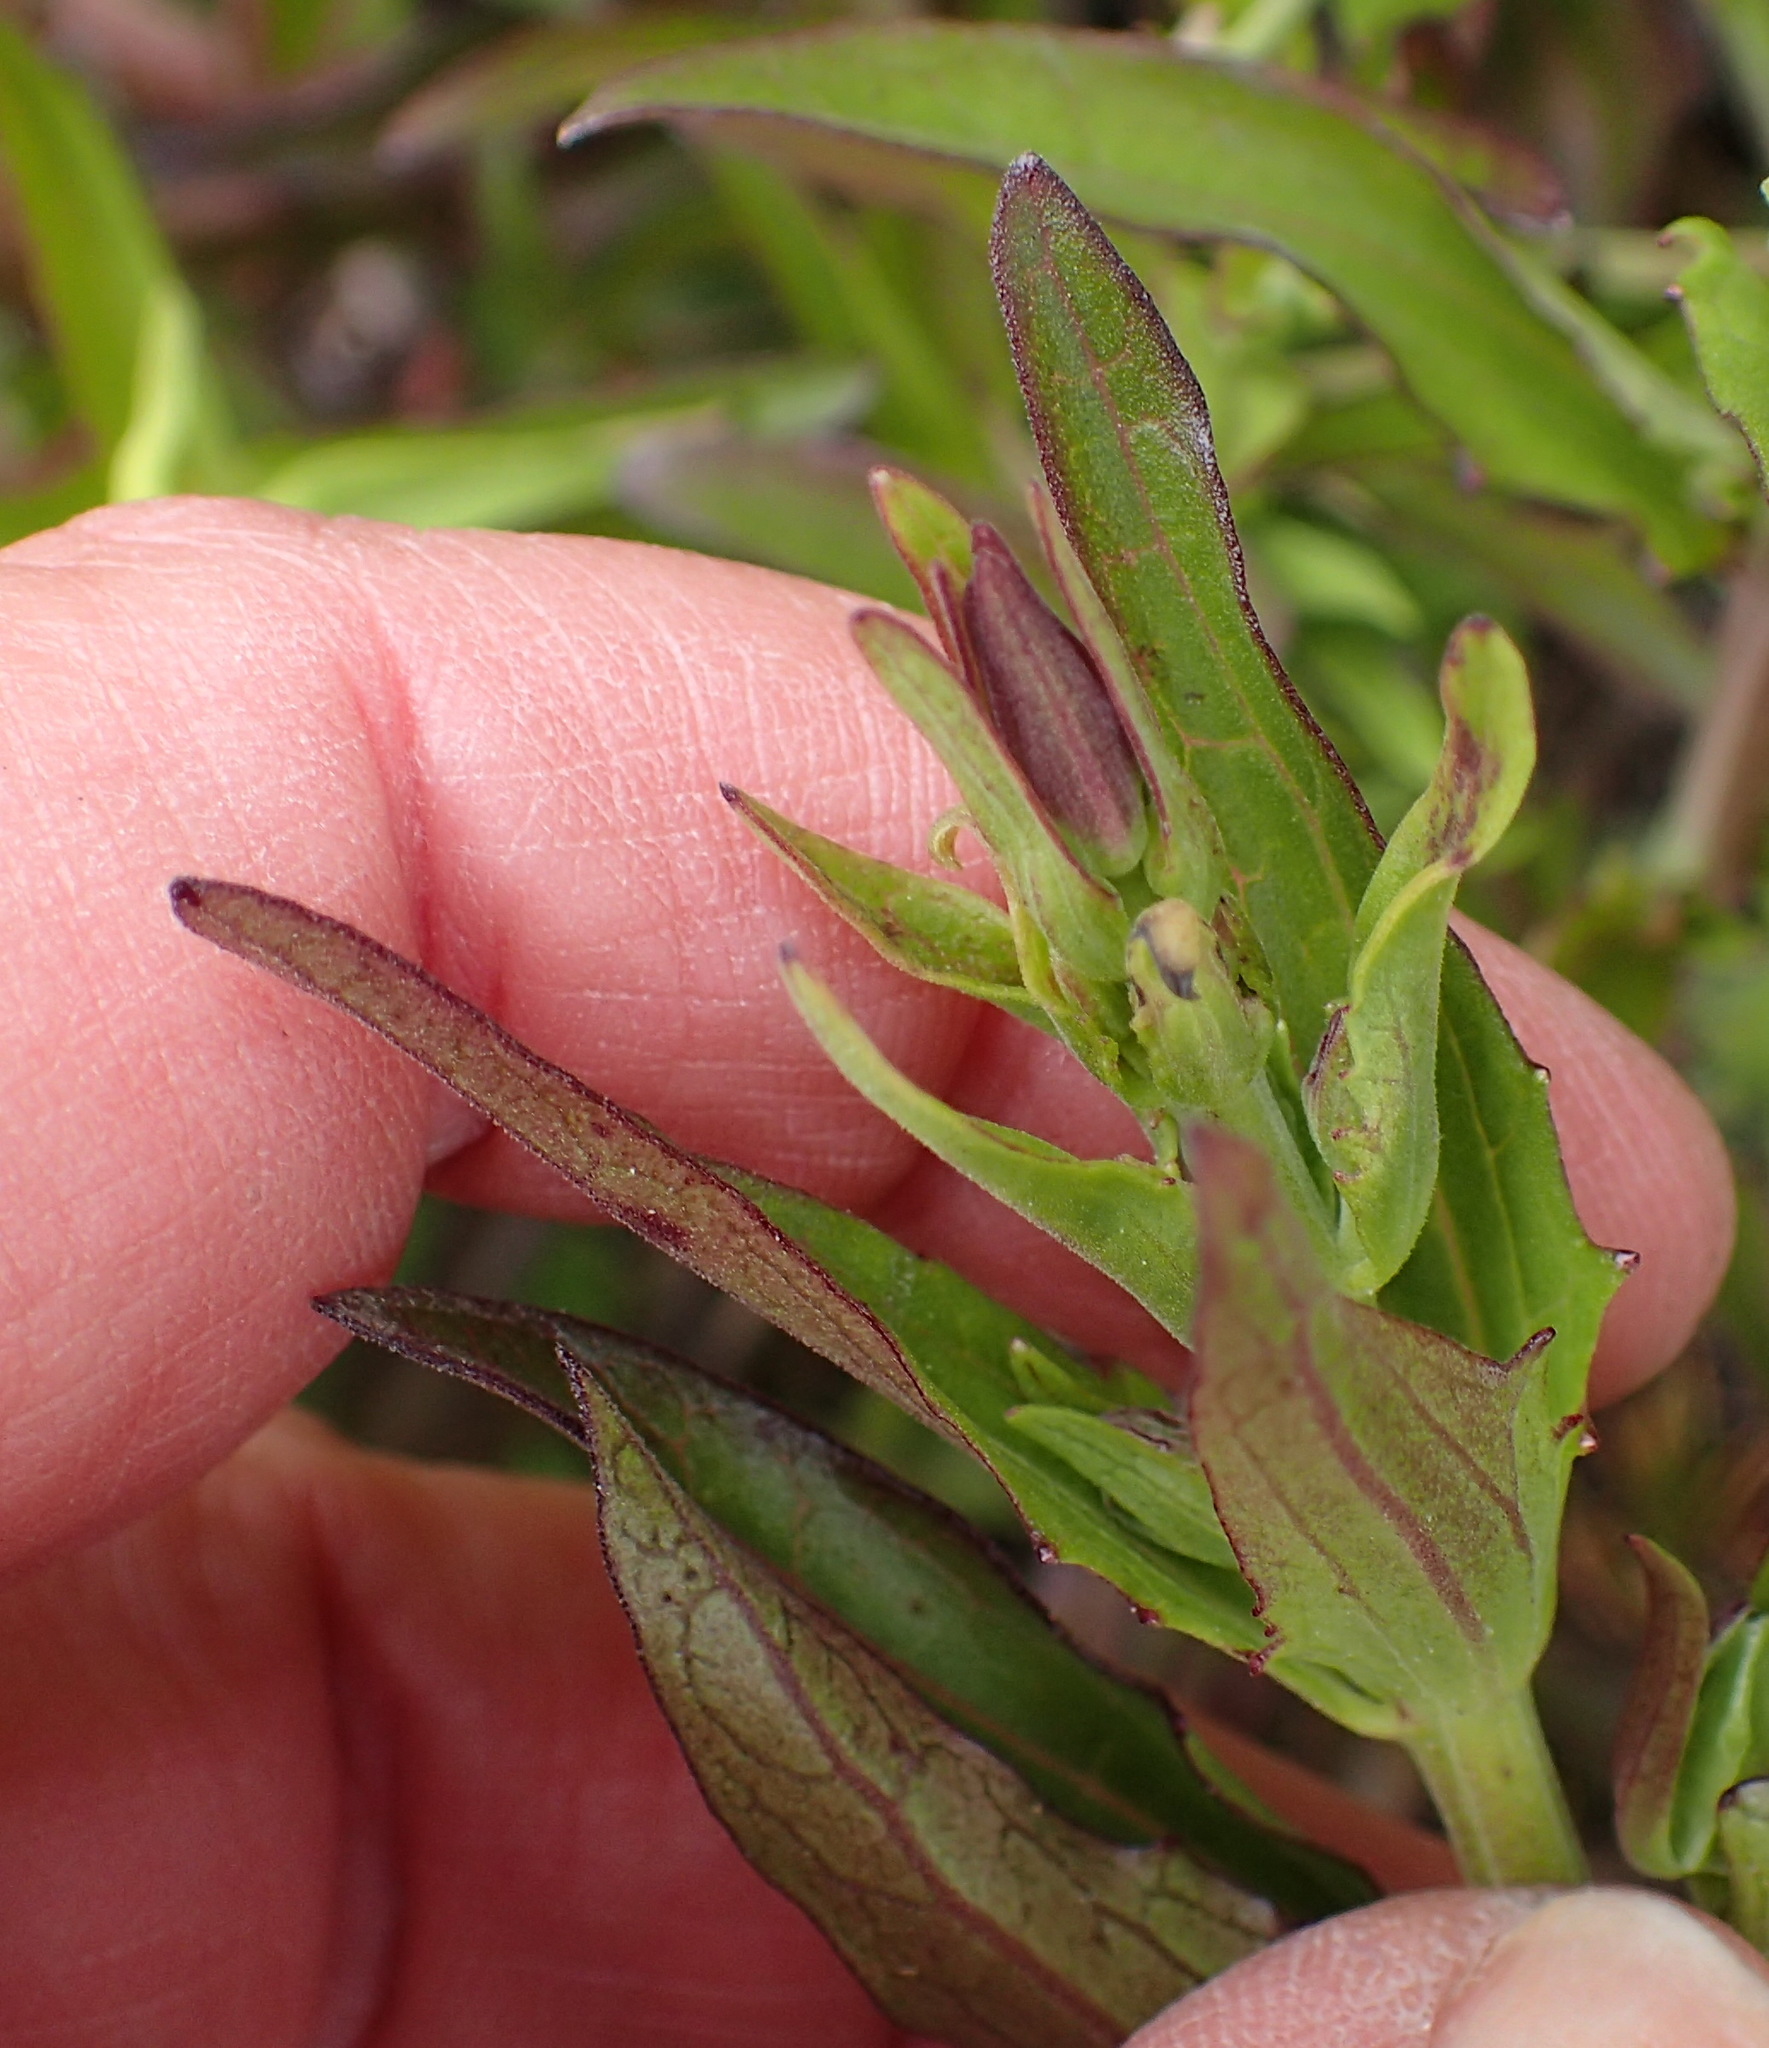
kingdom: Plantae
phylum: Tracheophyta
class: Magnoliopsida
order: Lamiales
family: Orobanchaceae
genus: Melasma
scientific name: Melasma scabrum
